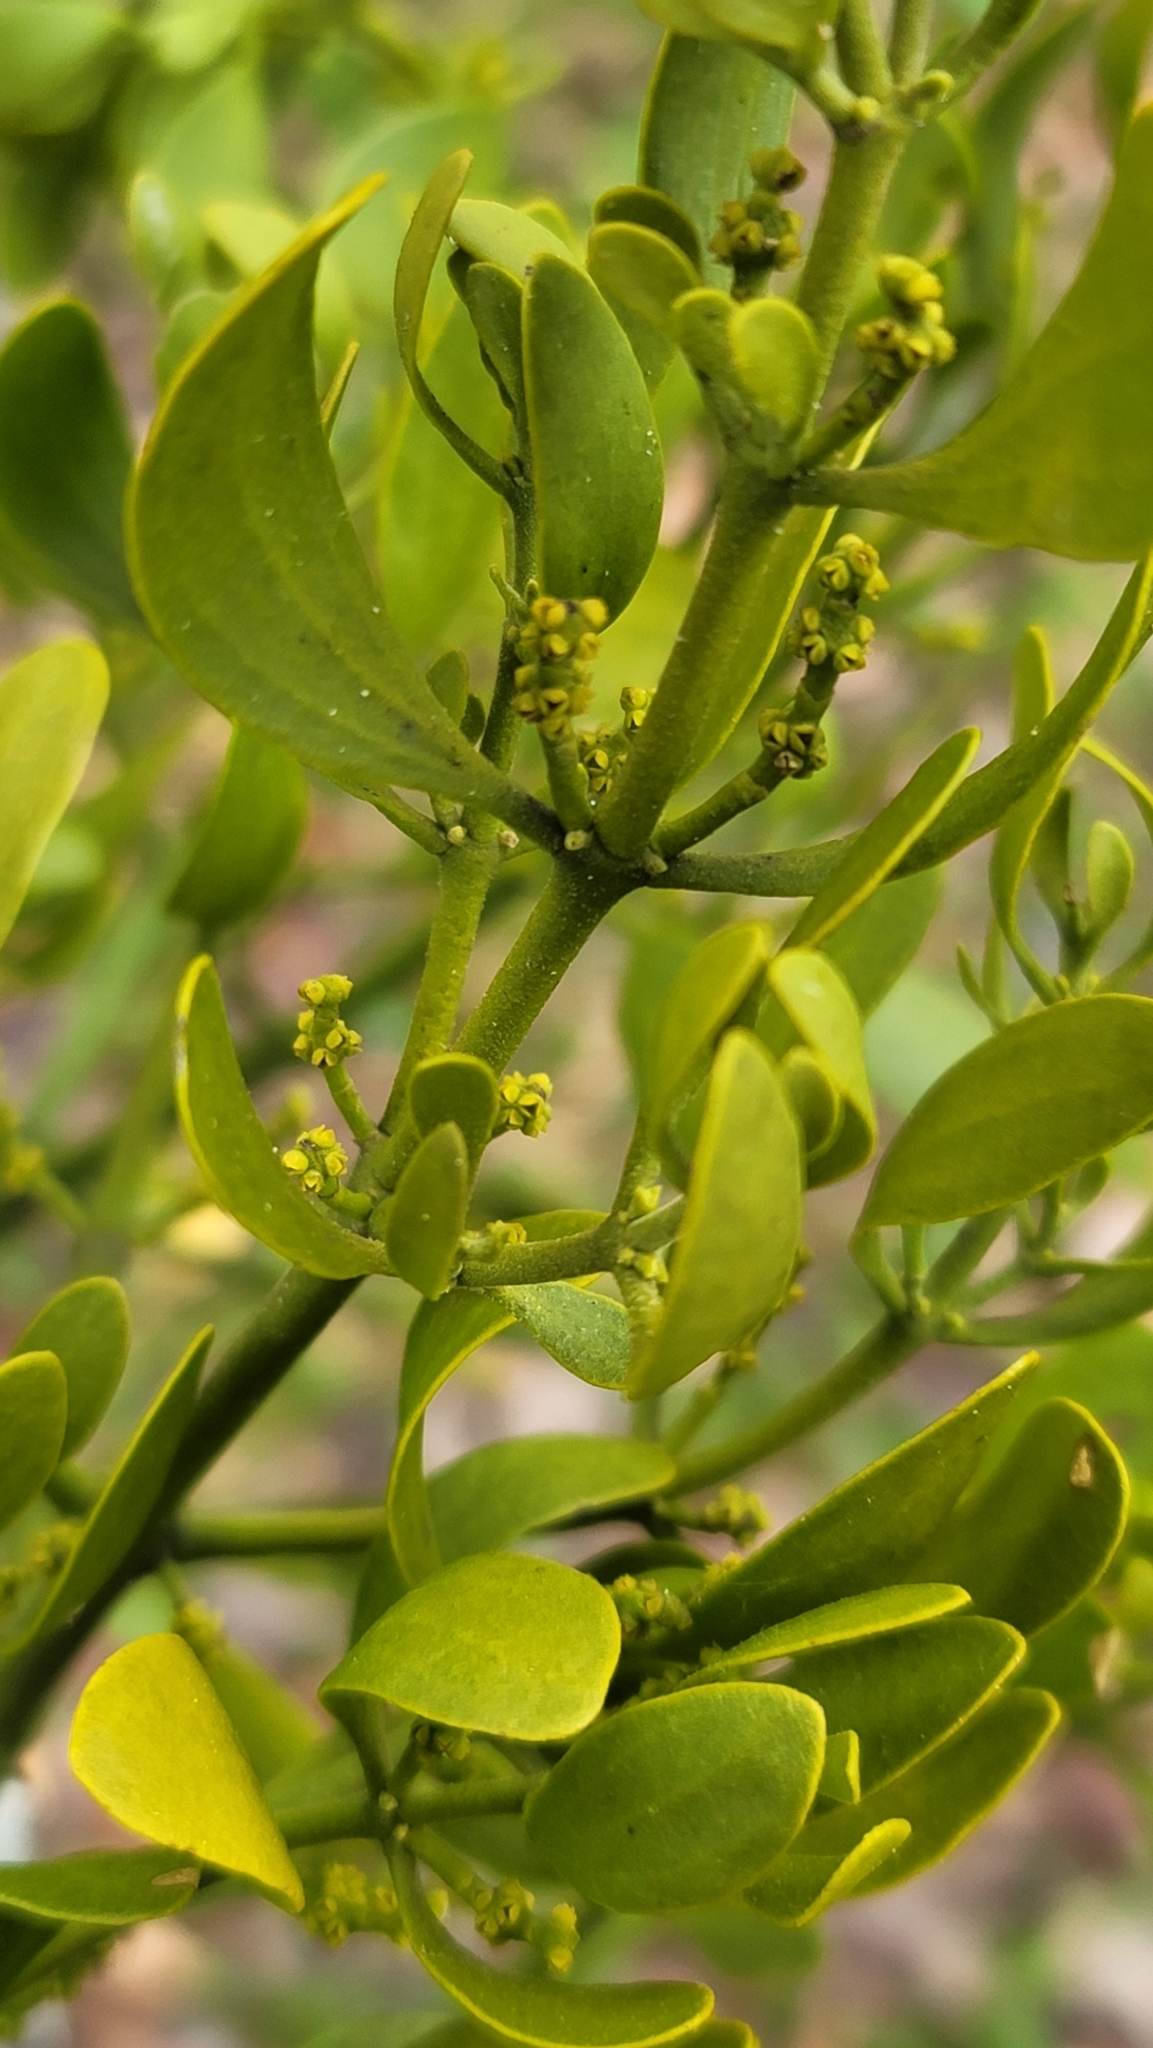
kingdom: Plantae
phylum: Tracheophyta
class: Magnoliopsida
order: Santalales
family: Viscaceae
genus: Phoradendron
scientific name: Phoradendron leucarpum
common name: Pacific mistletoe
